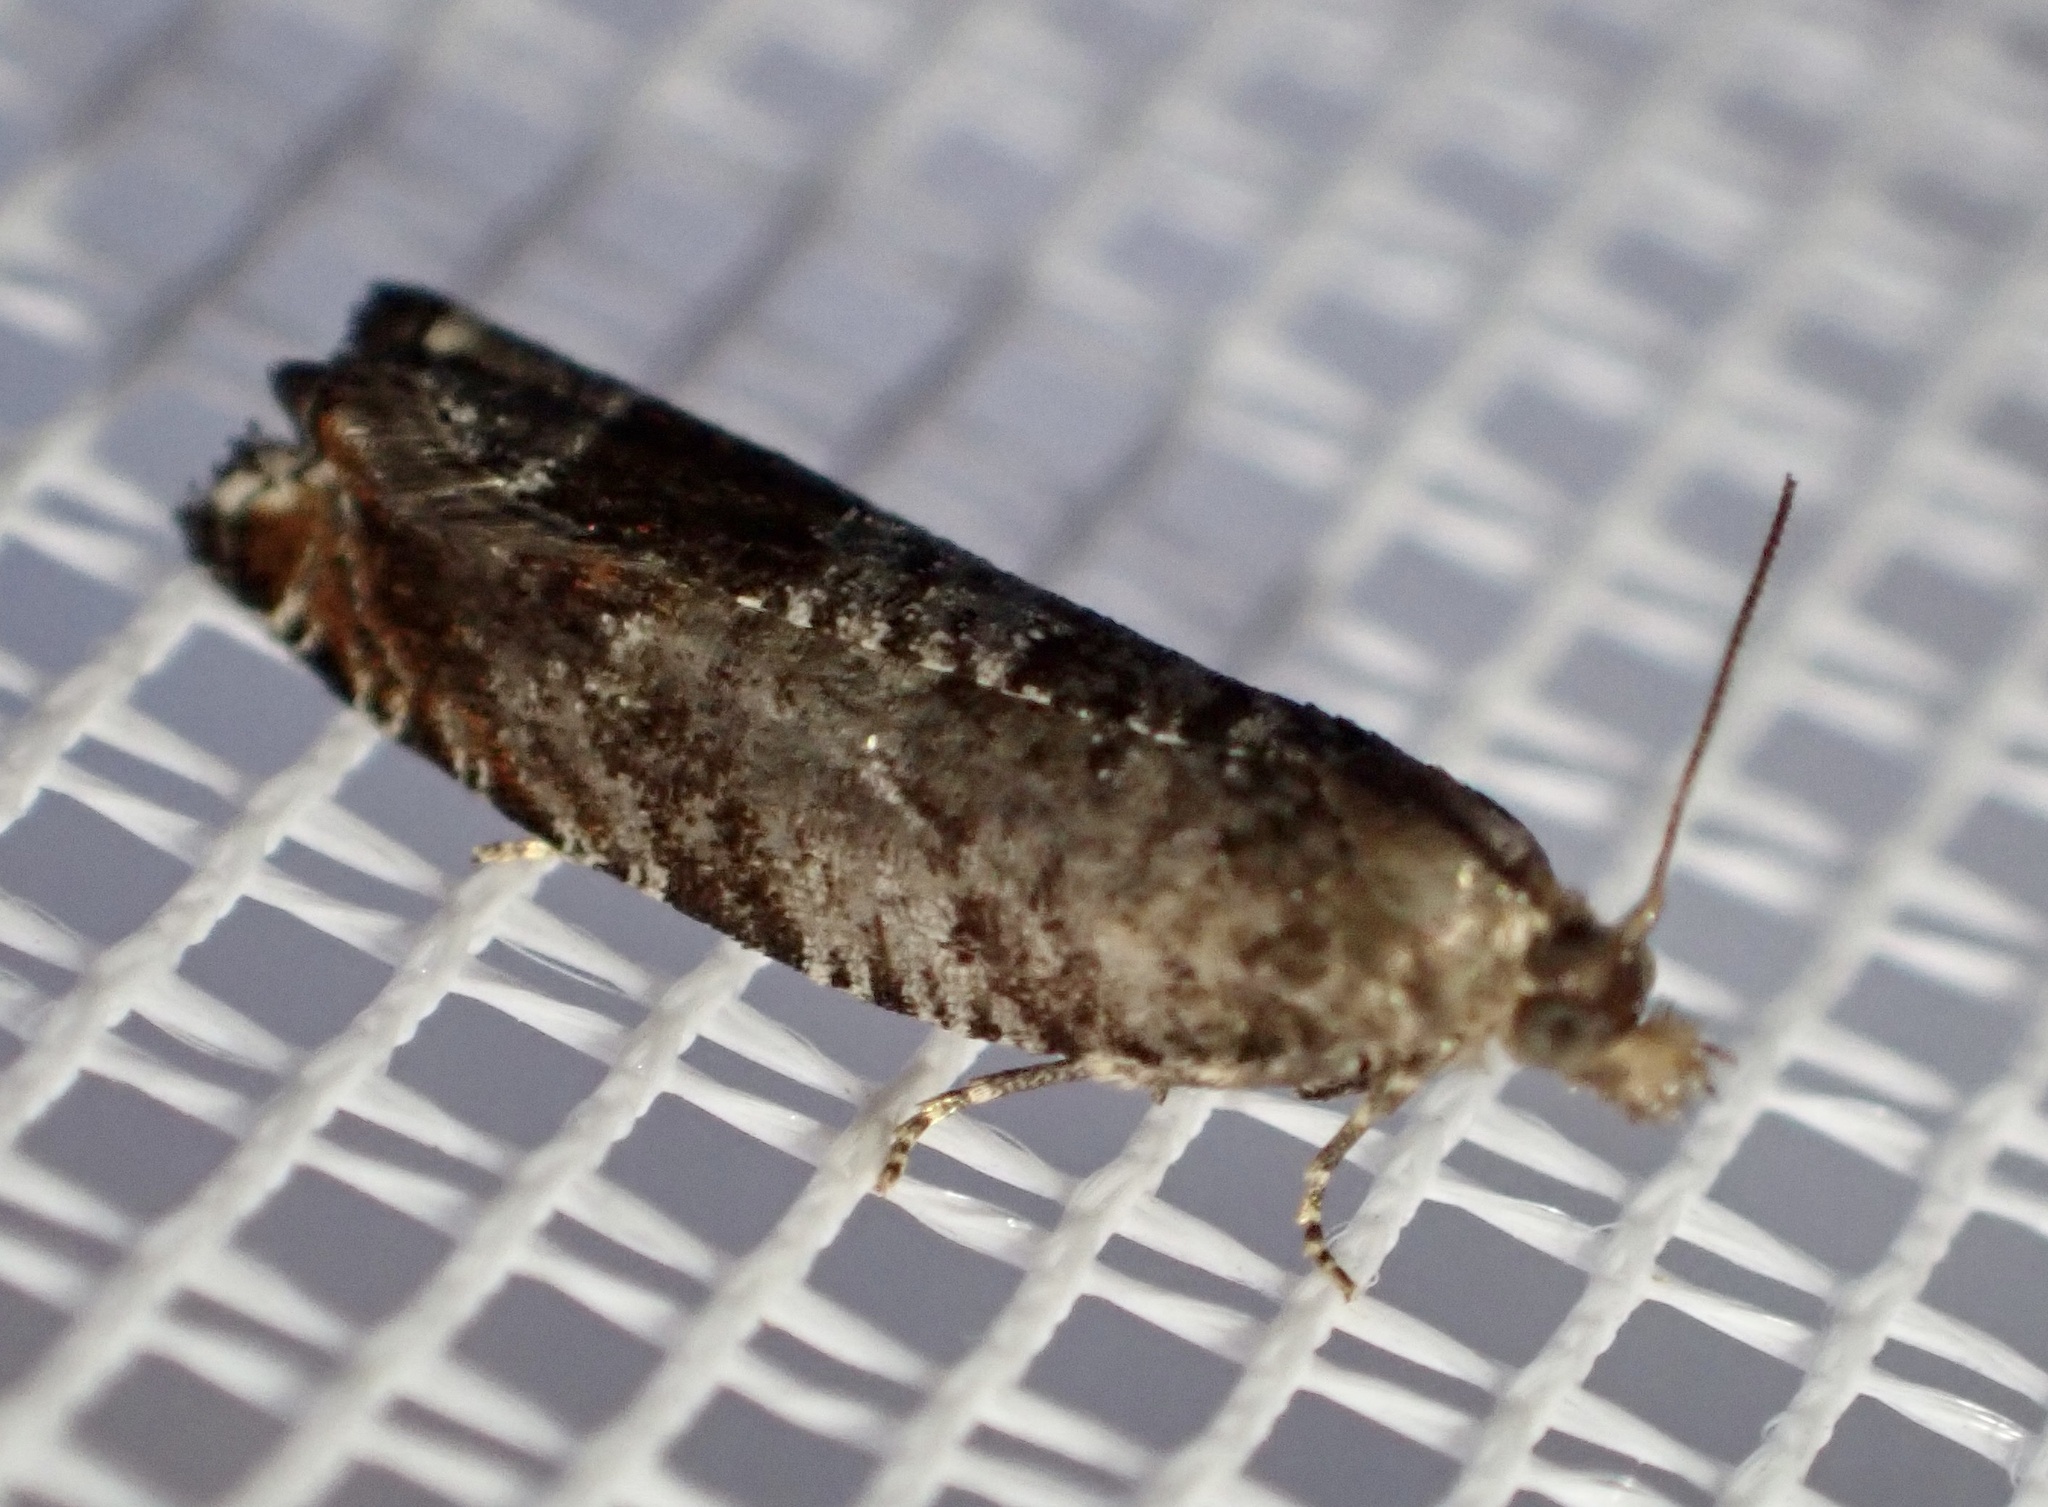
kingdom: Animalia
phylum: Arthropoda
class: Insecta
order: Lepidoptera
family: Tortricidae
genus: Ancylis
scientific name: Ancylis achatana
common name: Triangle-marked roller
